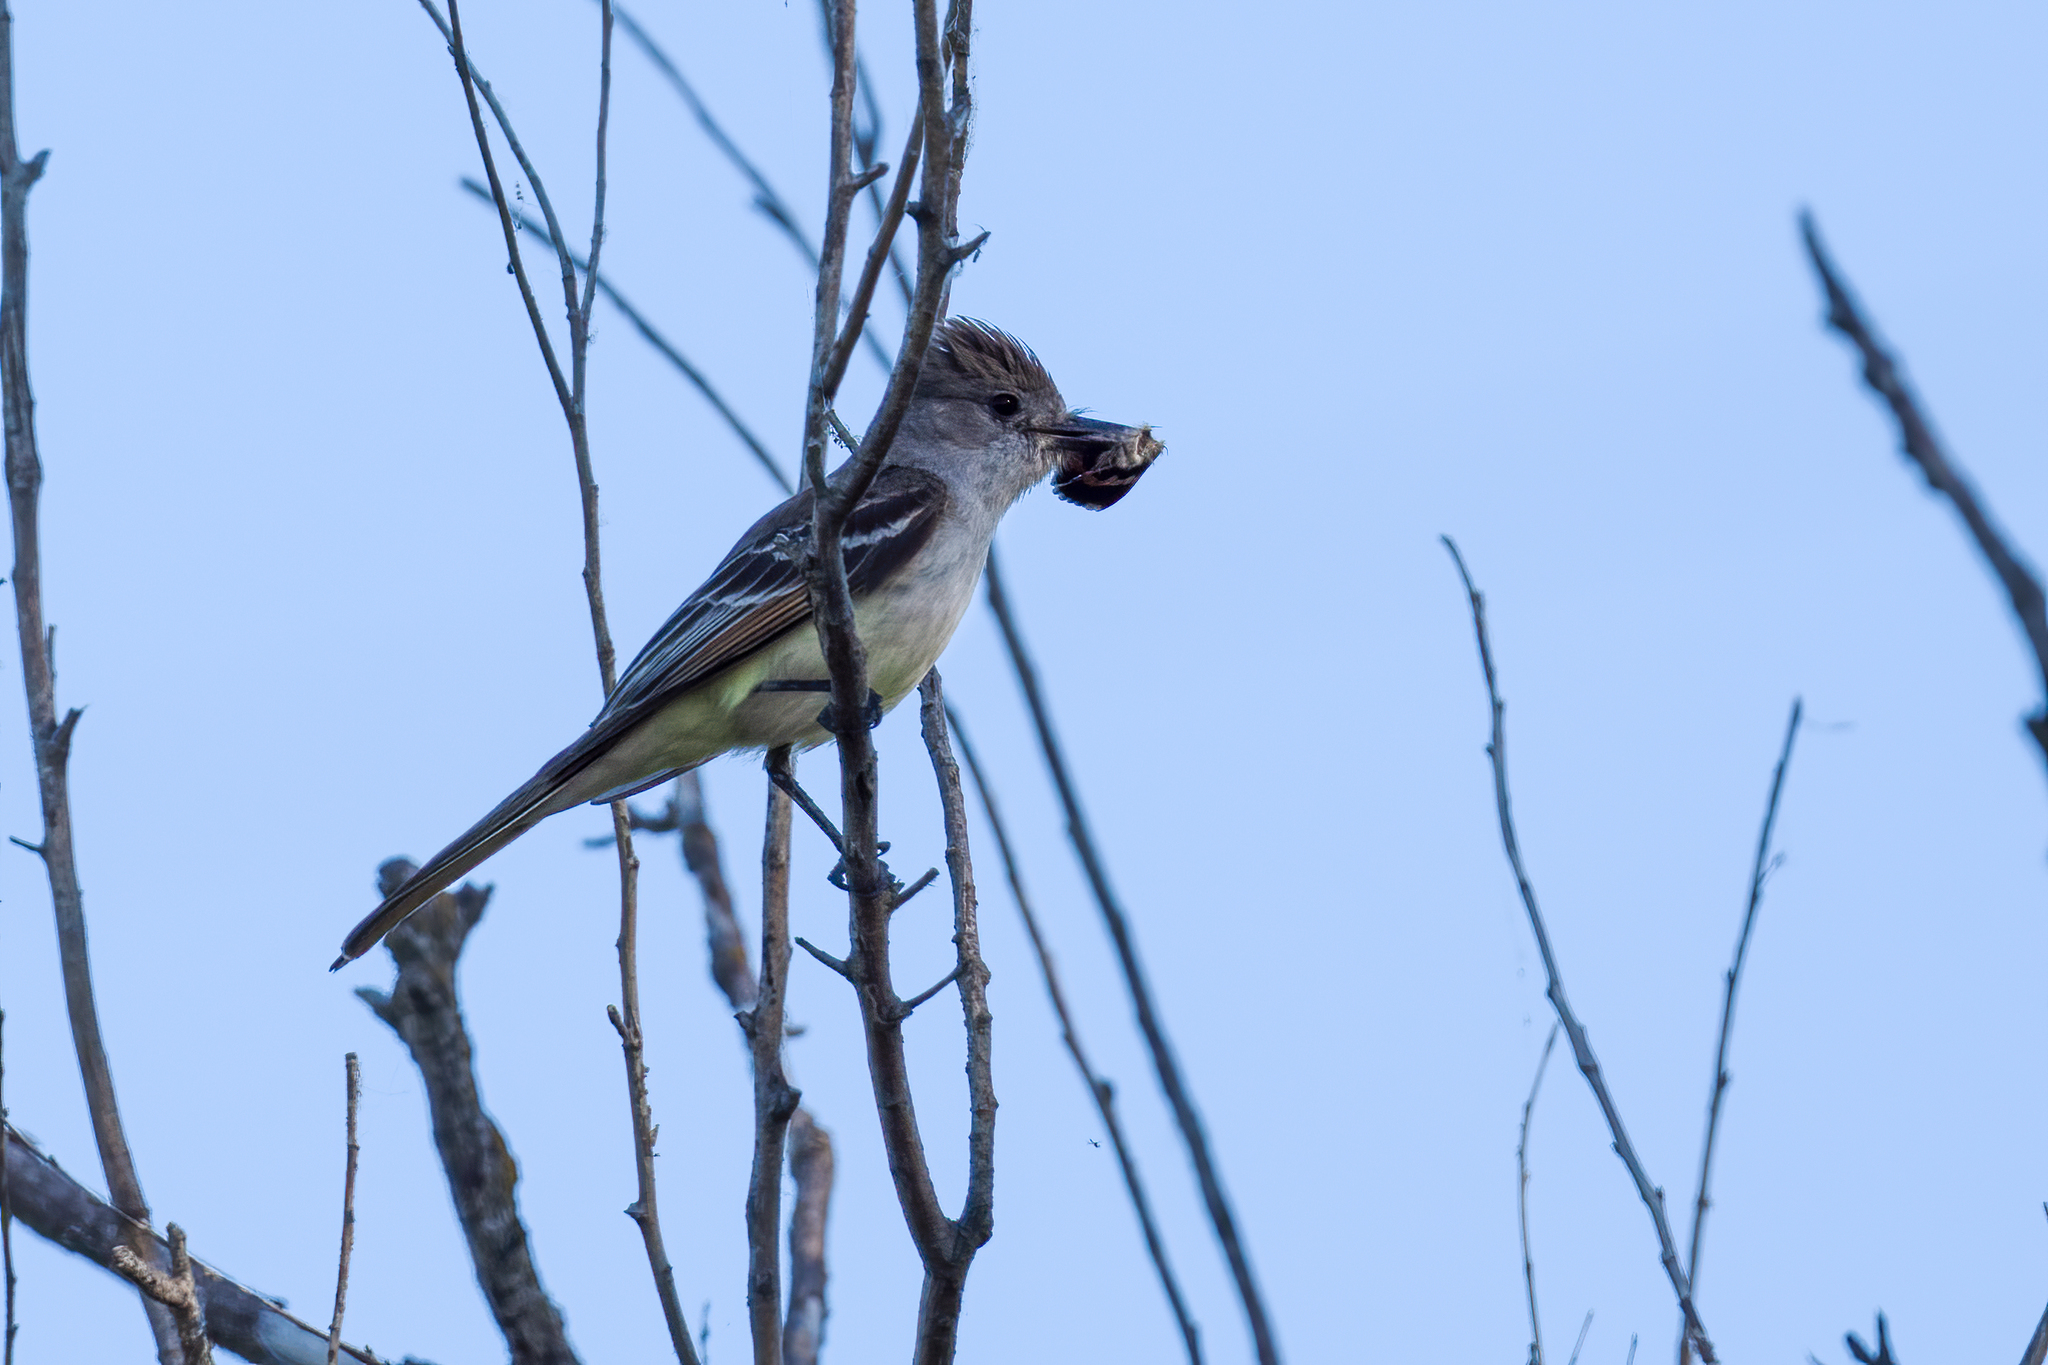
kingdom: Animalia
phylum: Chordata
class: Aves
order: Passeriformes
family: Tyrannidae
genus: Myiarchus
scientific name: Myiarchus cinerascens
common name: Ash-throated flycatcher
